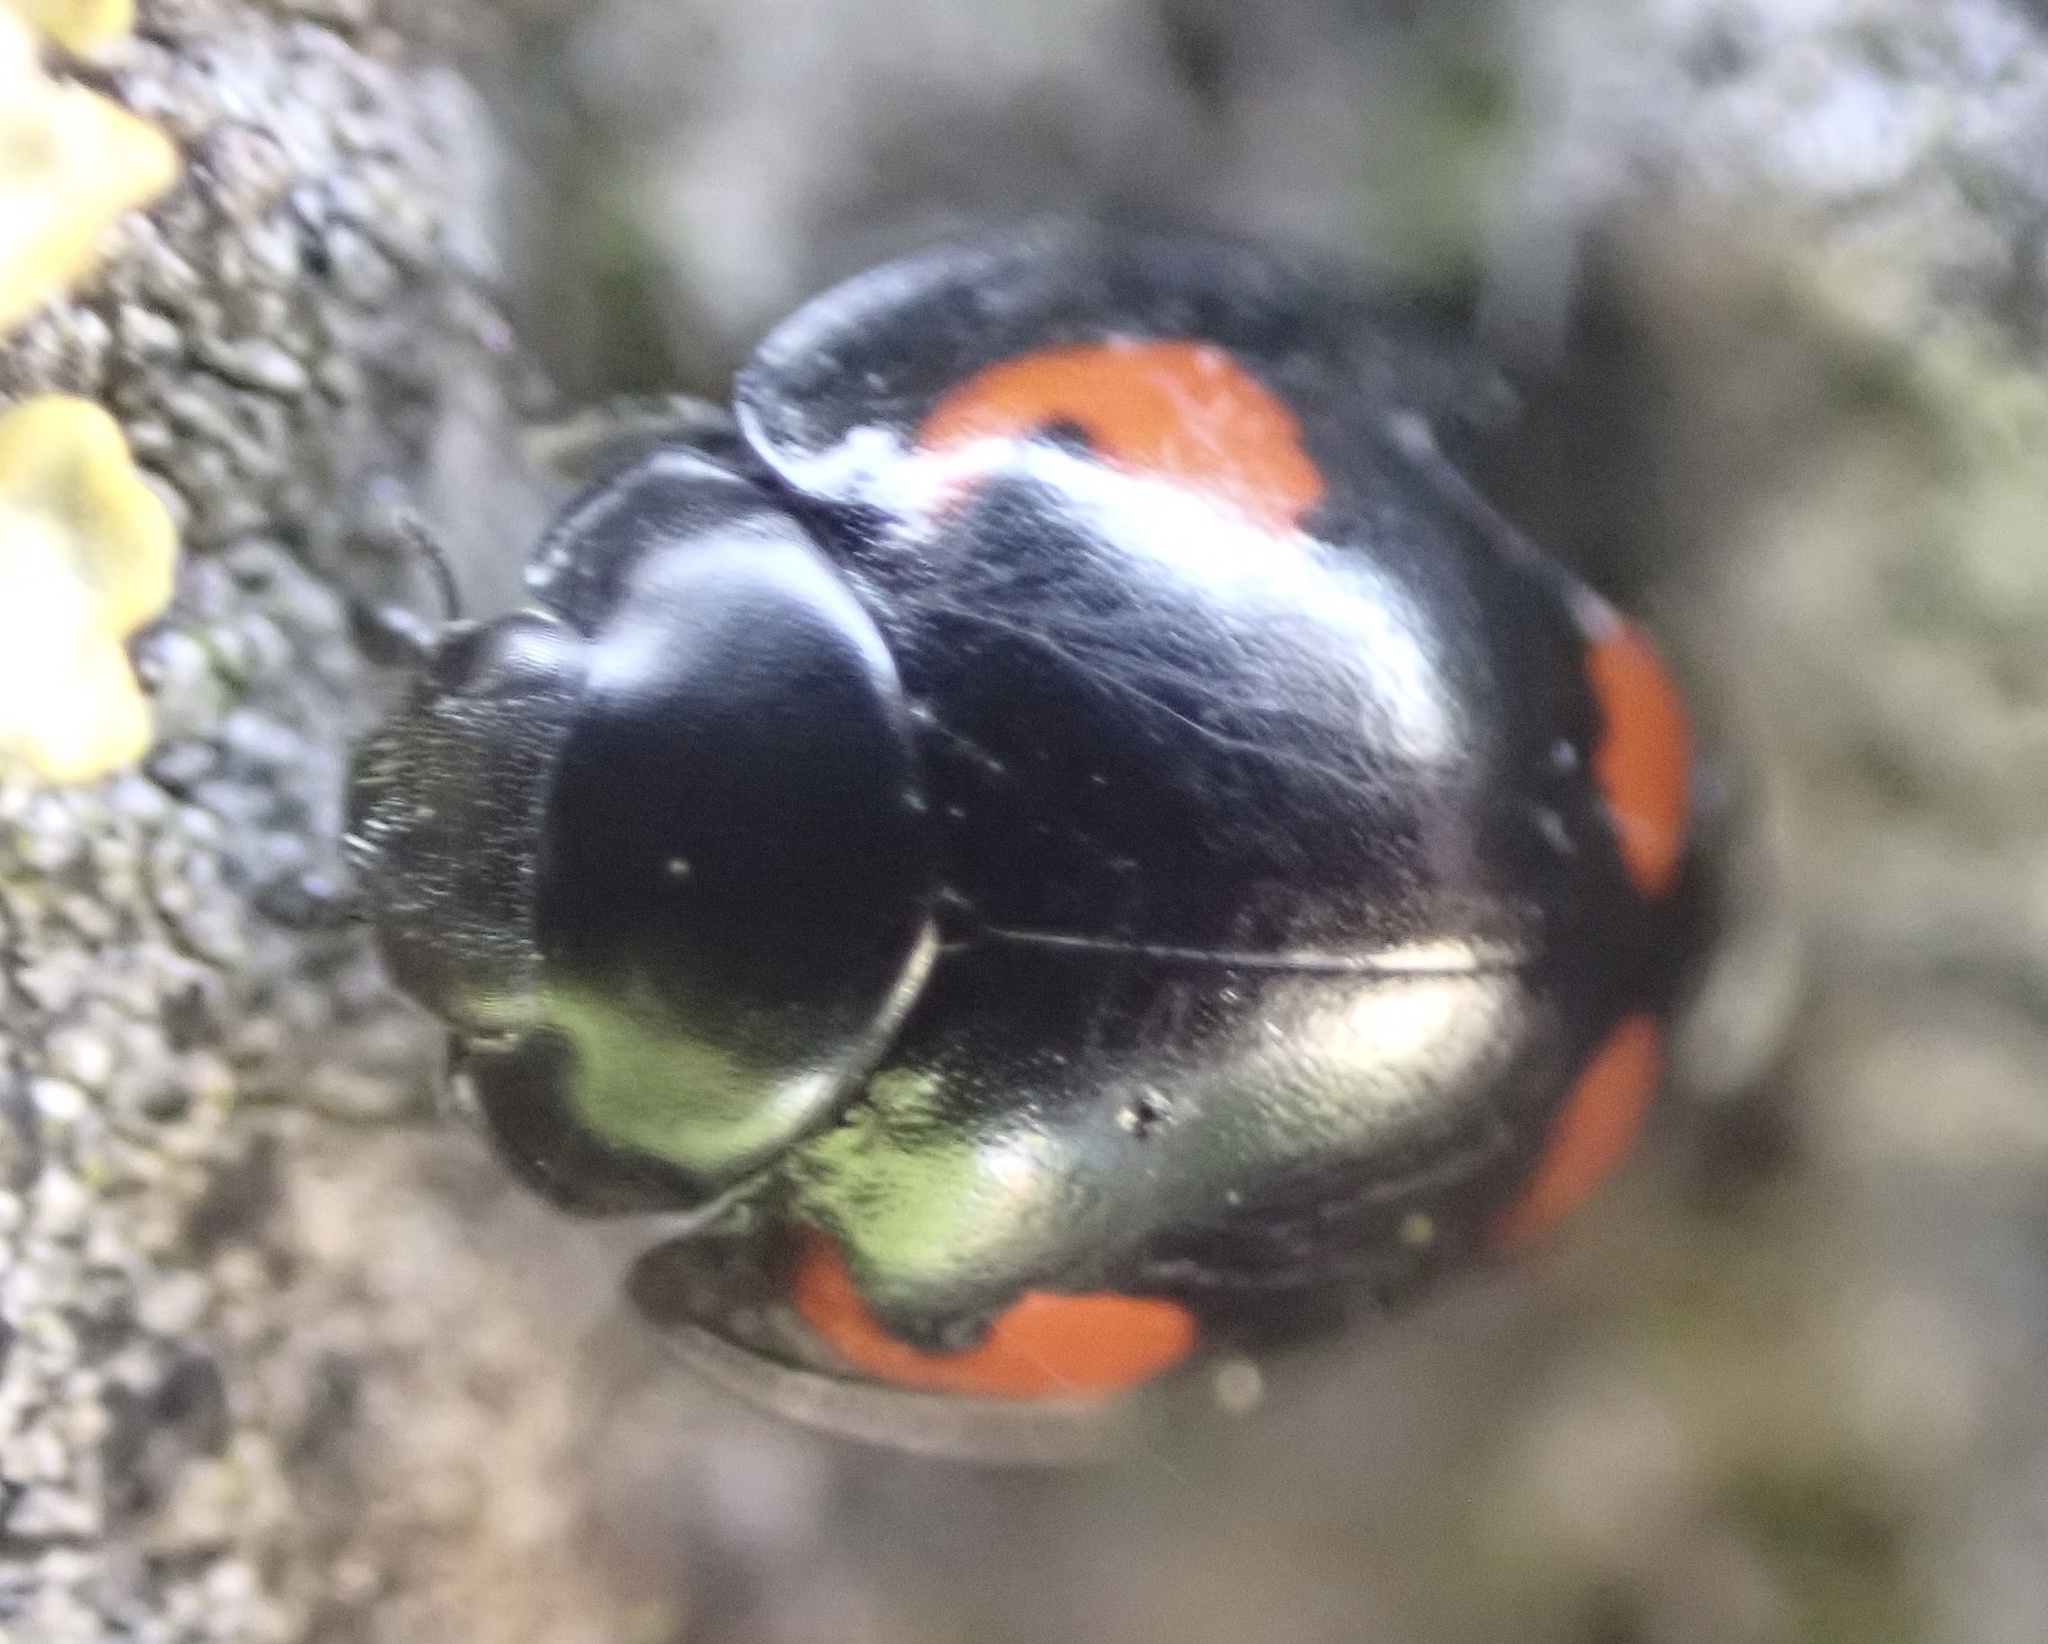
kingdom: Animalia
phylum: Arthropoda
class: Insecta
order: Coleoptera
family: Coccinellidae
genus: Brumus
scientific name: Brumus quadripustulatus
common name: Ladybird beetle
